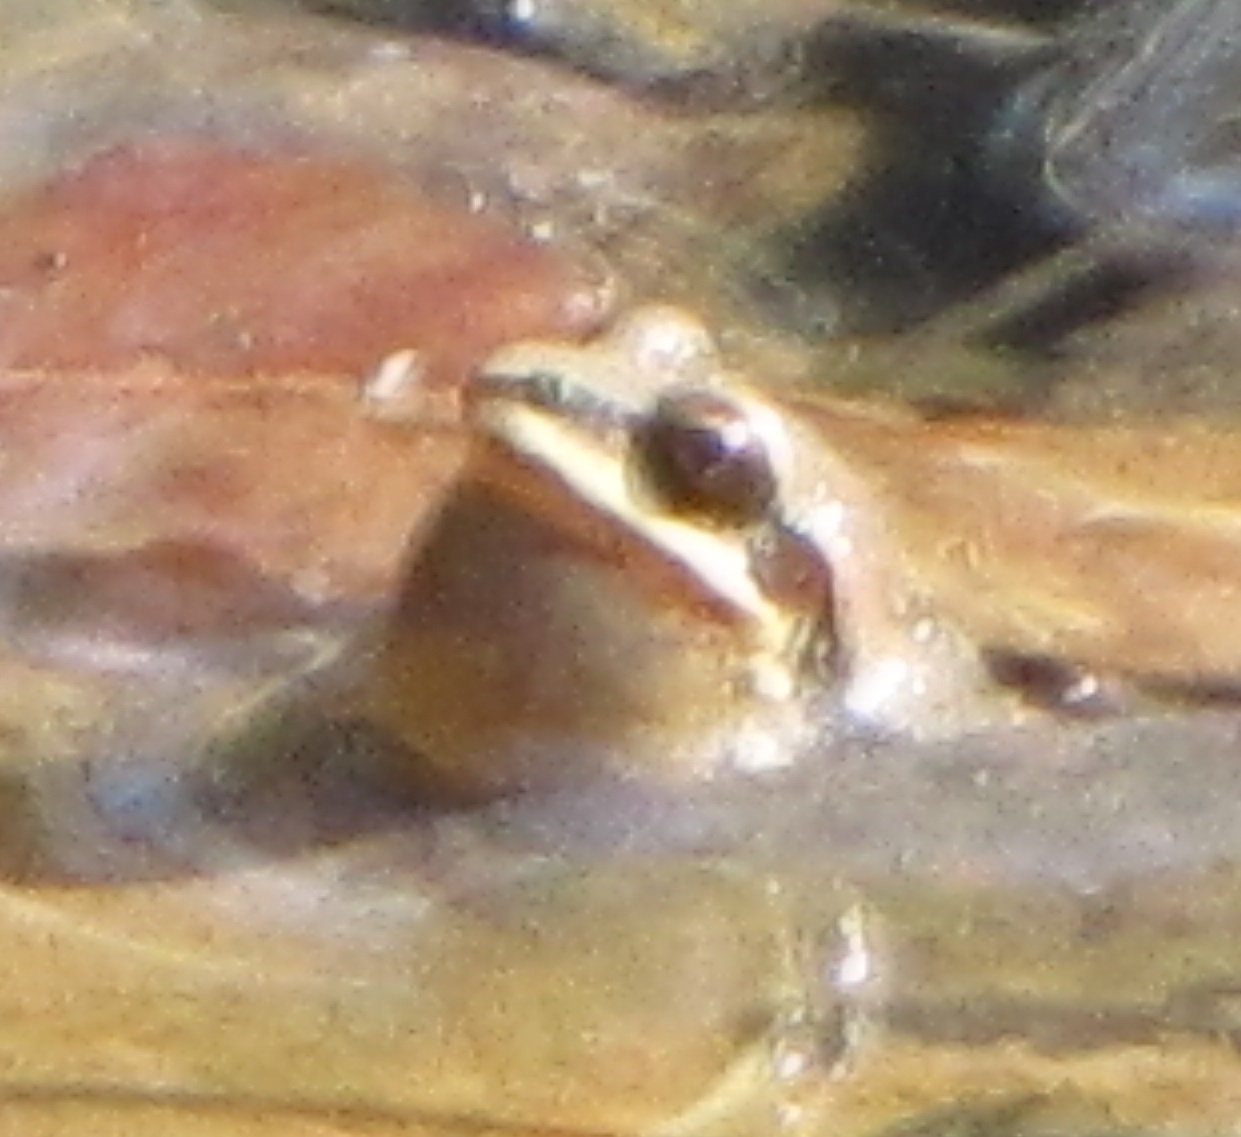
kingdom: Animalia
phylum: Chordata
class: Amphibia
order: Anura
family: Hylidae
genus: Pseudacris
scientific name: Pseudacris feriarum
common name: Upland chorus frog
